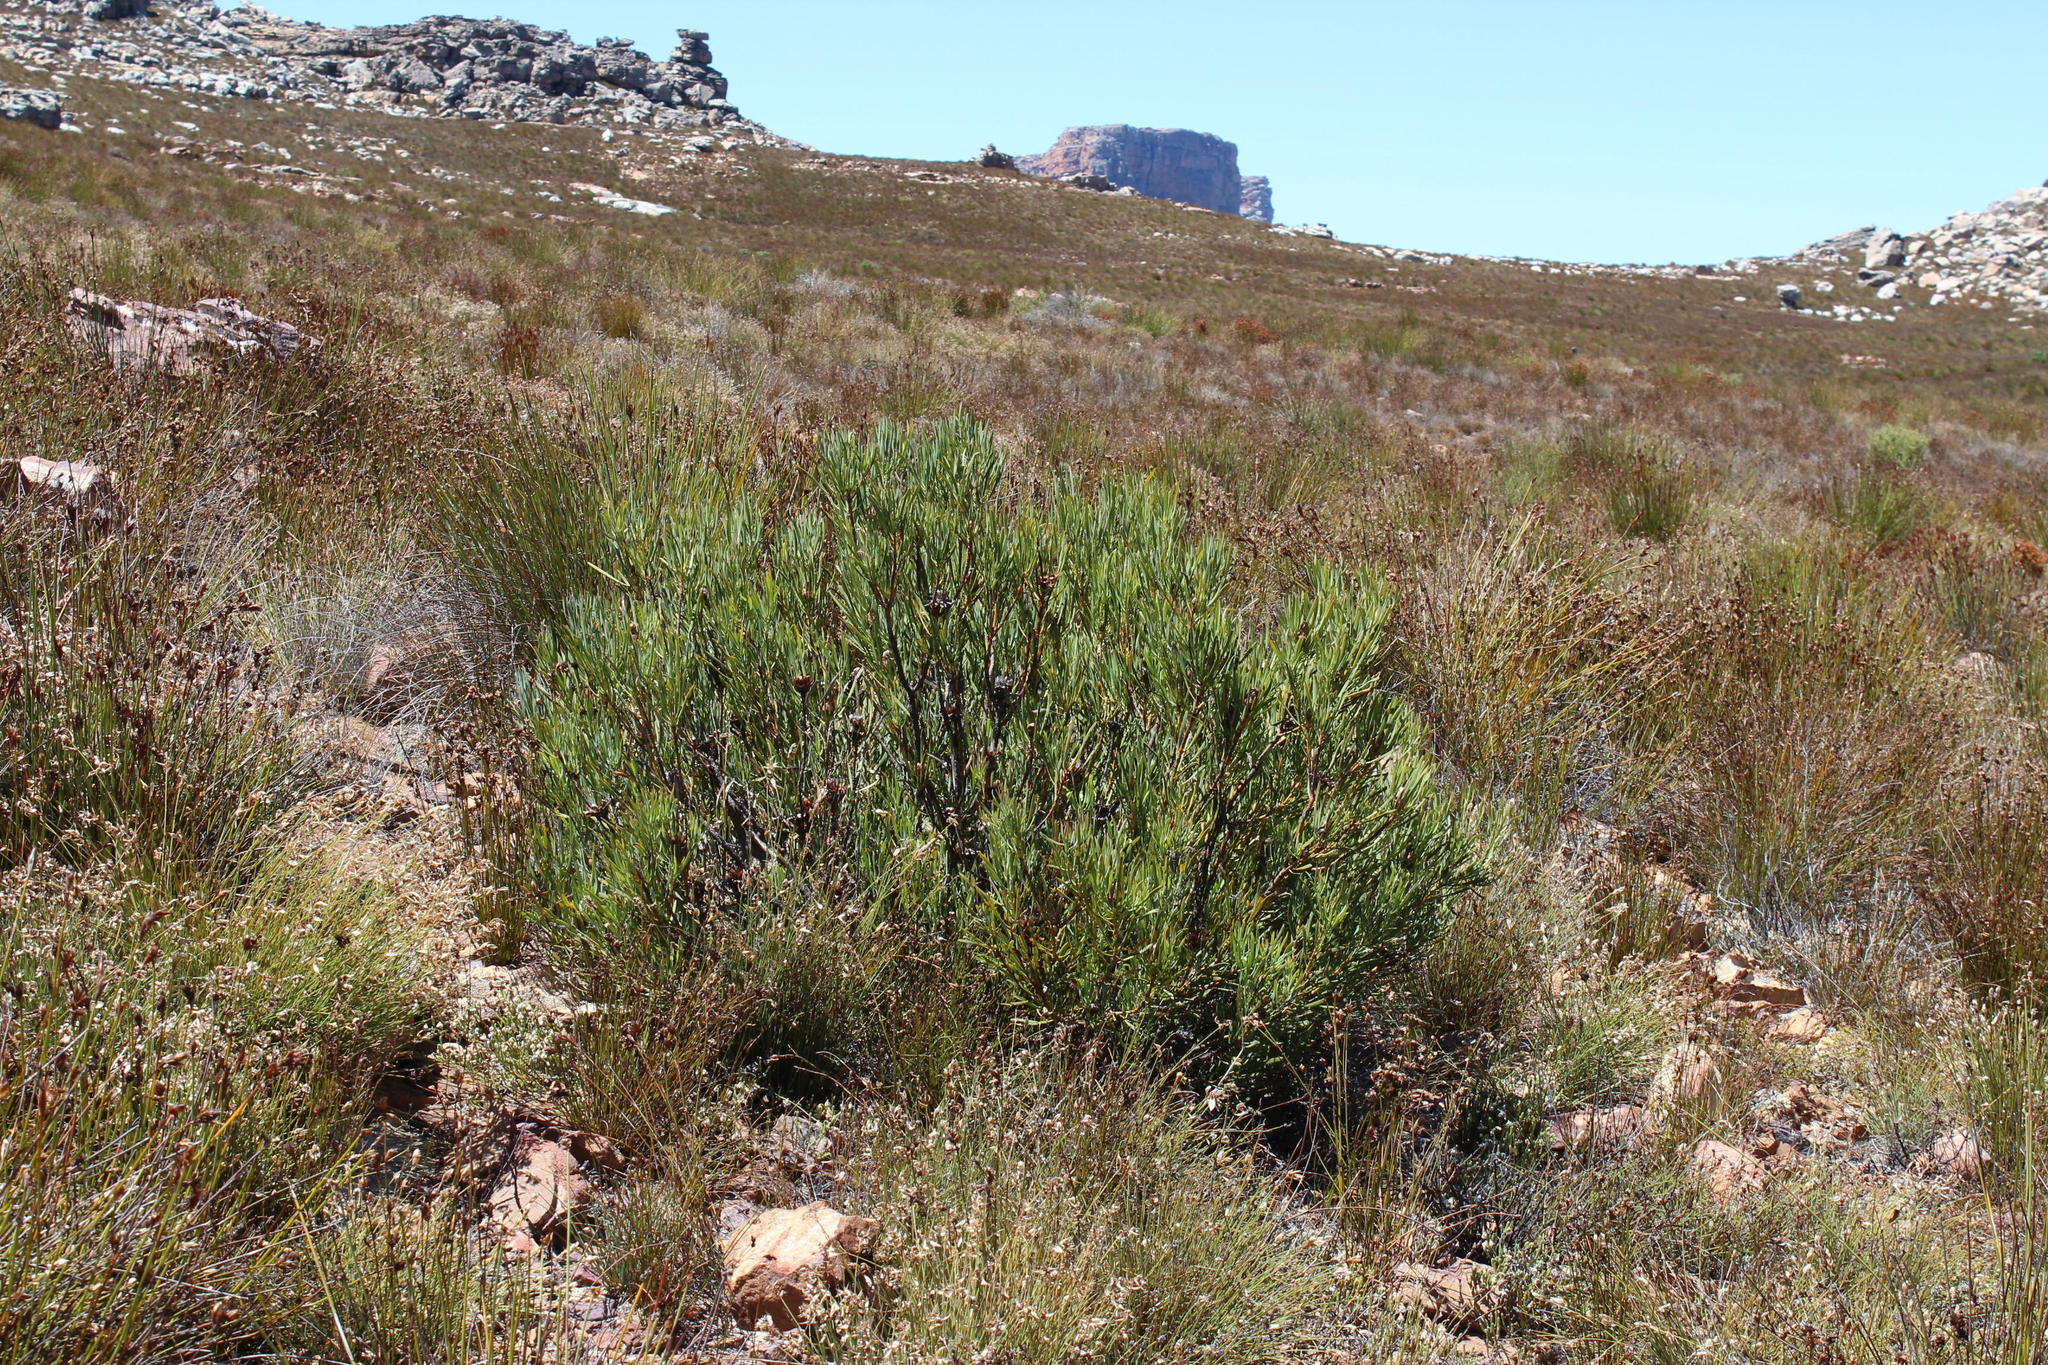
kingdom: Plantae
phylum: Tracheophyta
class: Magnoliopsida
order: Proteales
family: Proteaceae
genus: Protea
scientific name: Protea acuminata
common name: Black-rim sugarbush
